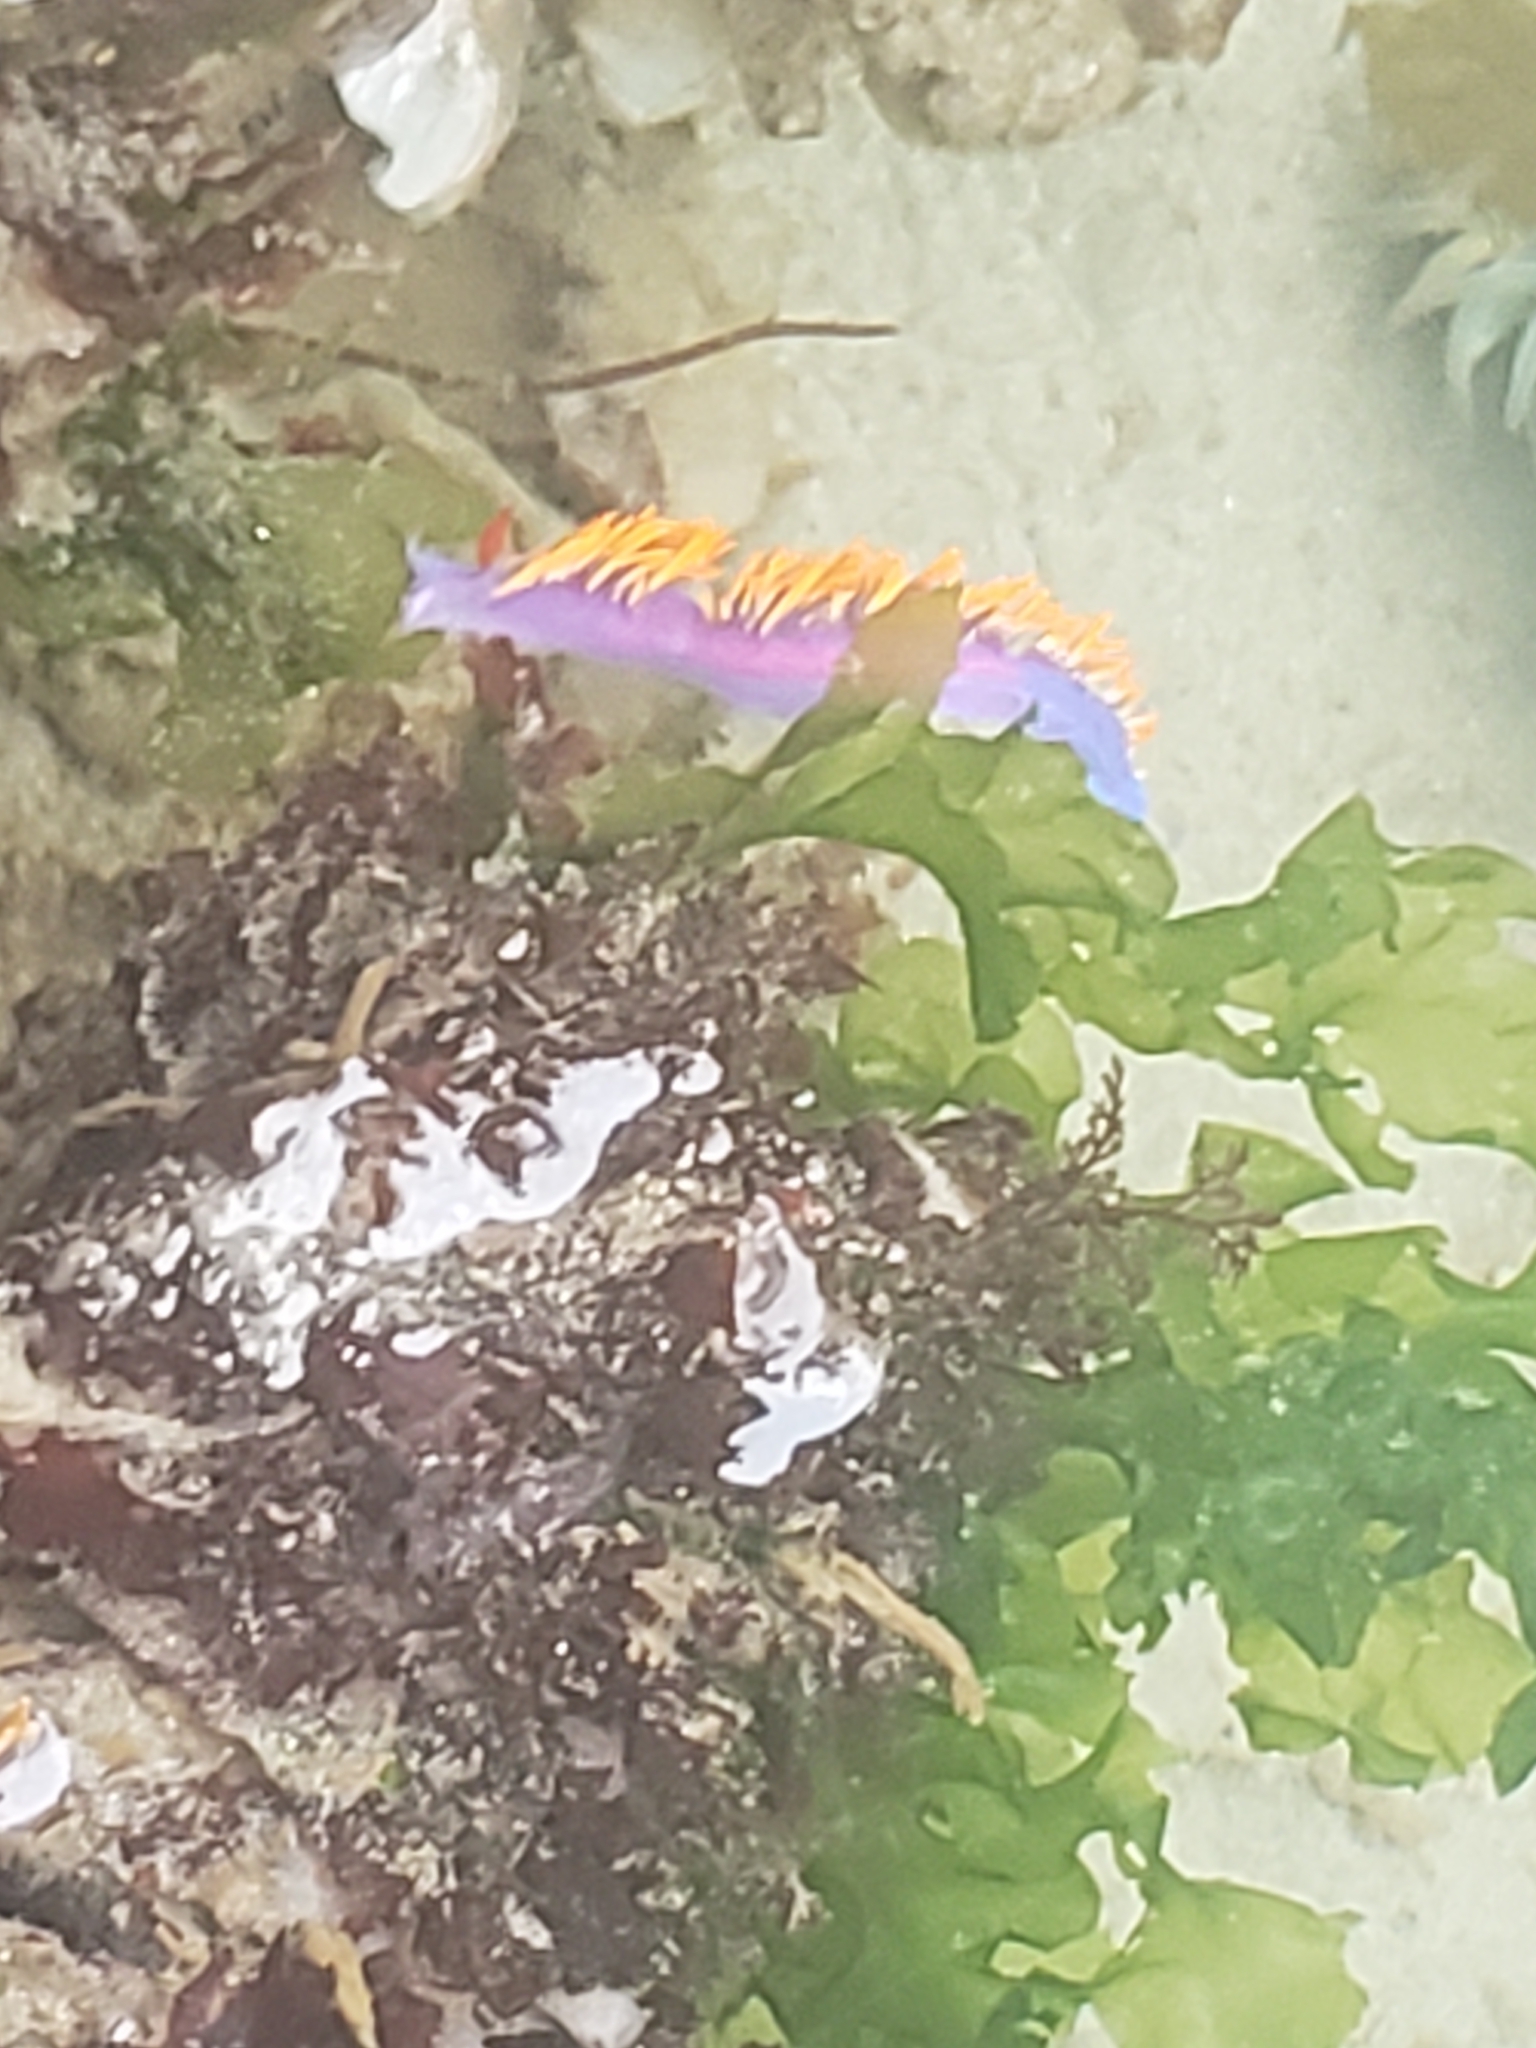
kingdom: Animalia
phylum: Mollusca
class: Gastropoda
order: Nudibranchia
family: Flabellinopsidae
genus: Flabellinopsis
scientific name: Flabellinopsis iodinea
